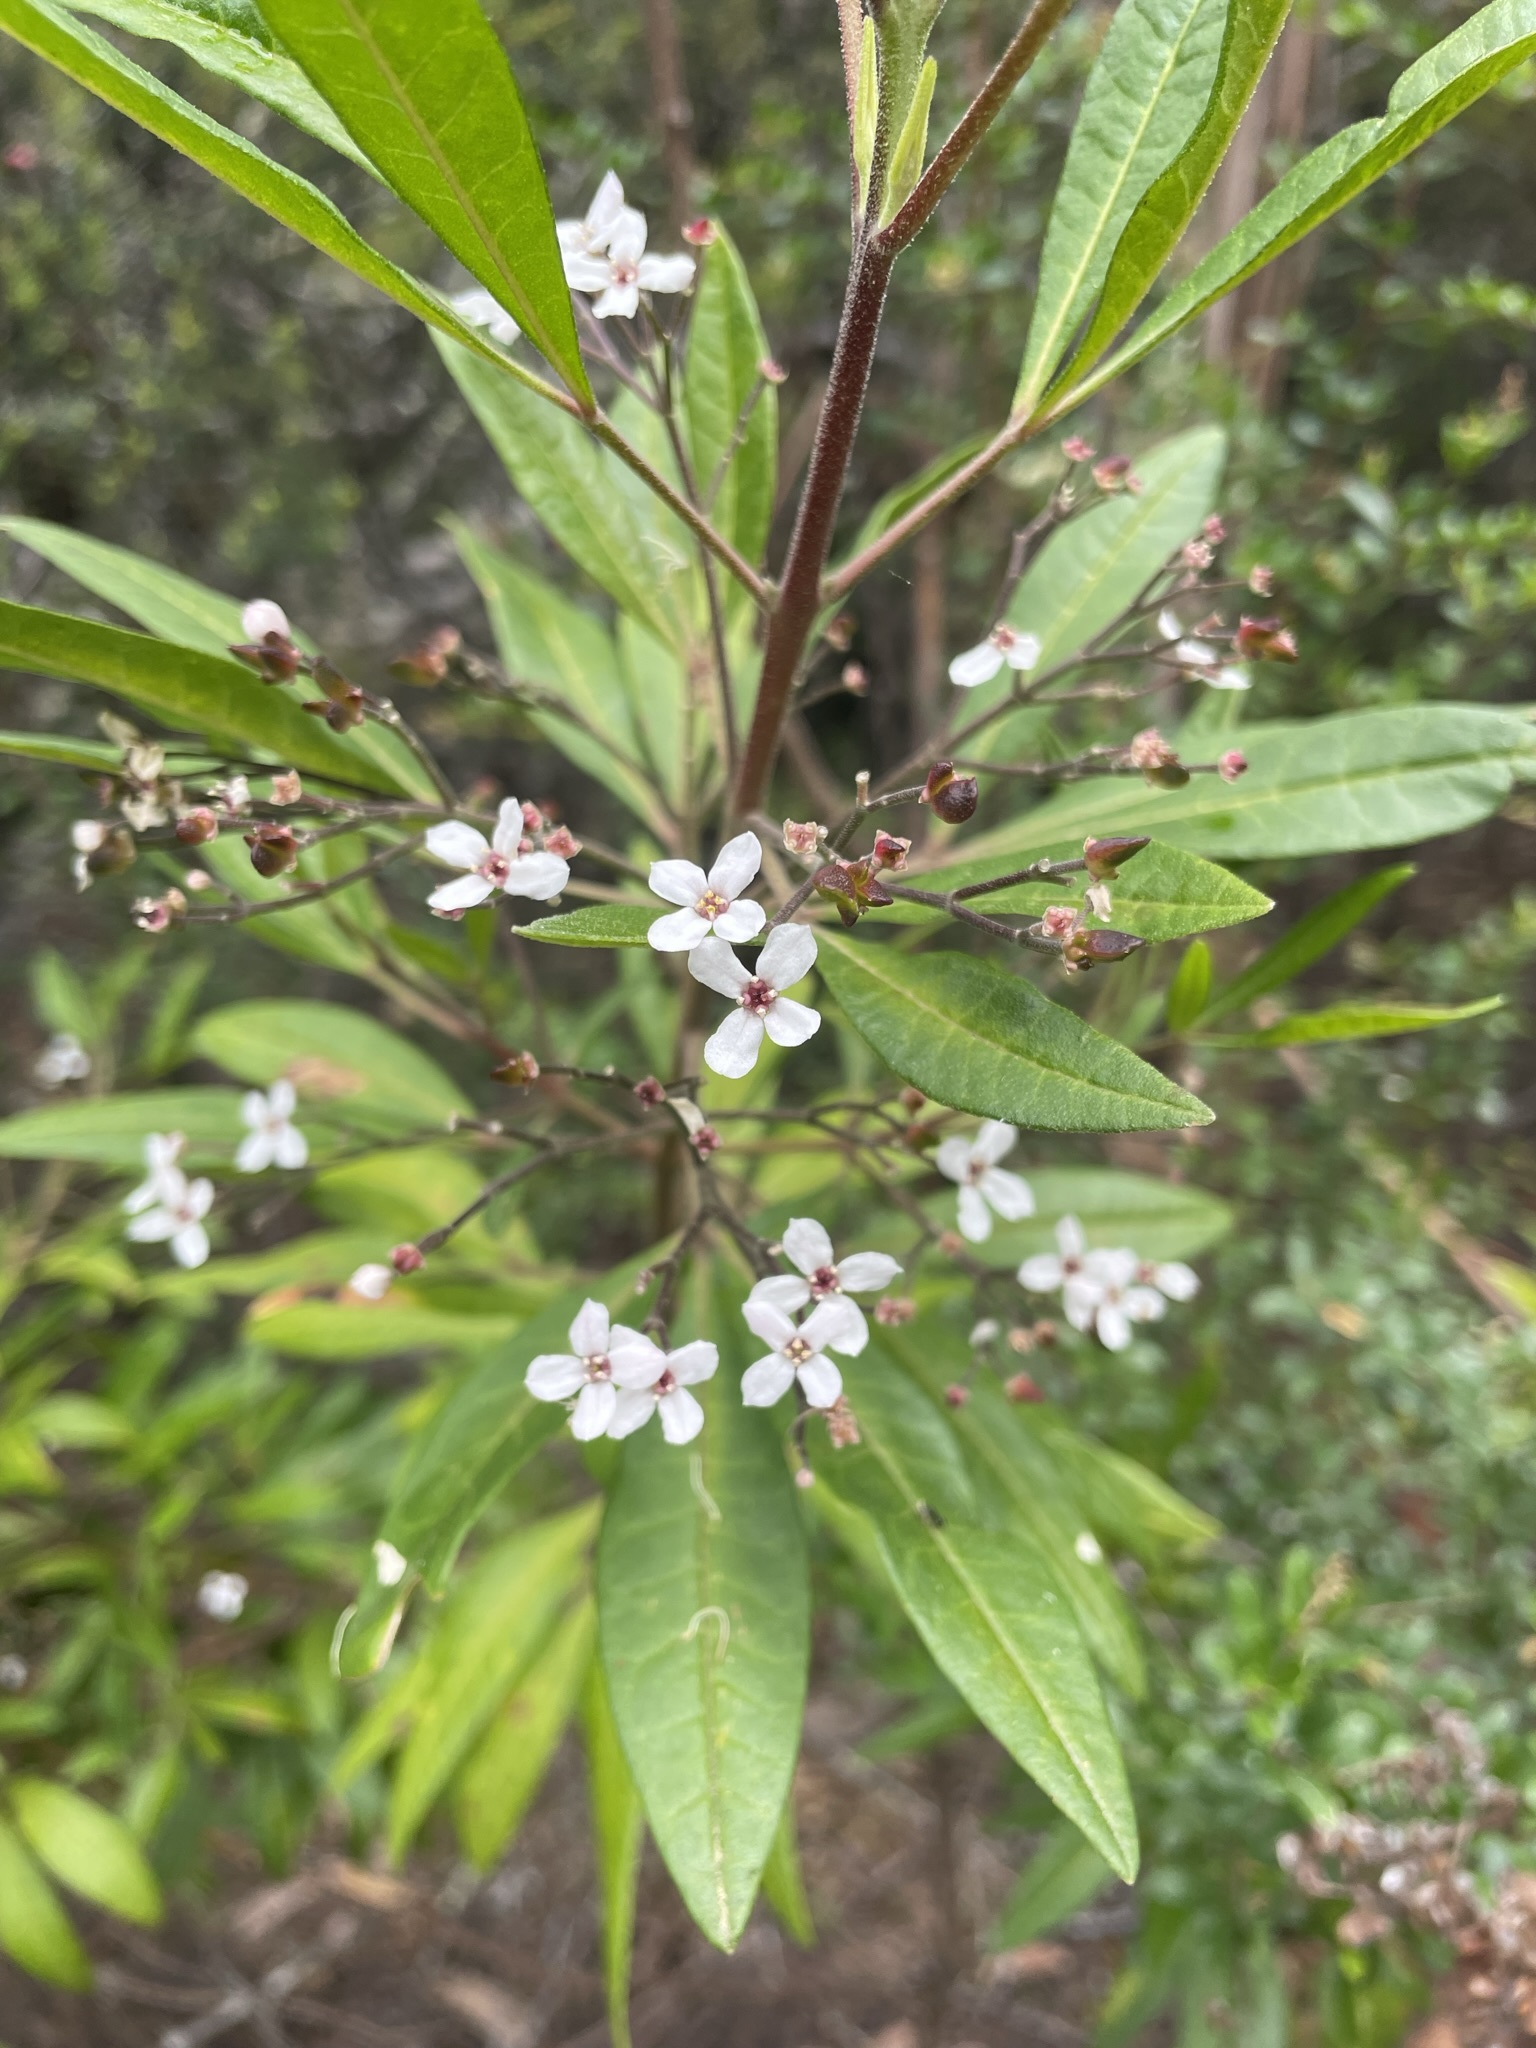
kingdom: Plantae
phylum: Tracheophyta
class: Magnoliopsida
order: Sapindales
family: Rutaceae
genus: Zieria
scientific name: Zieria arborescens
